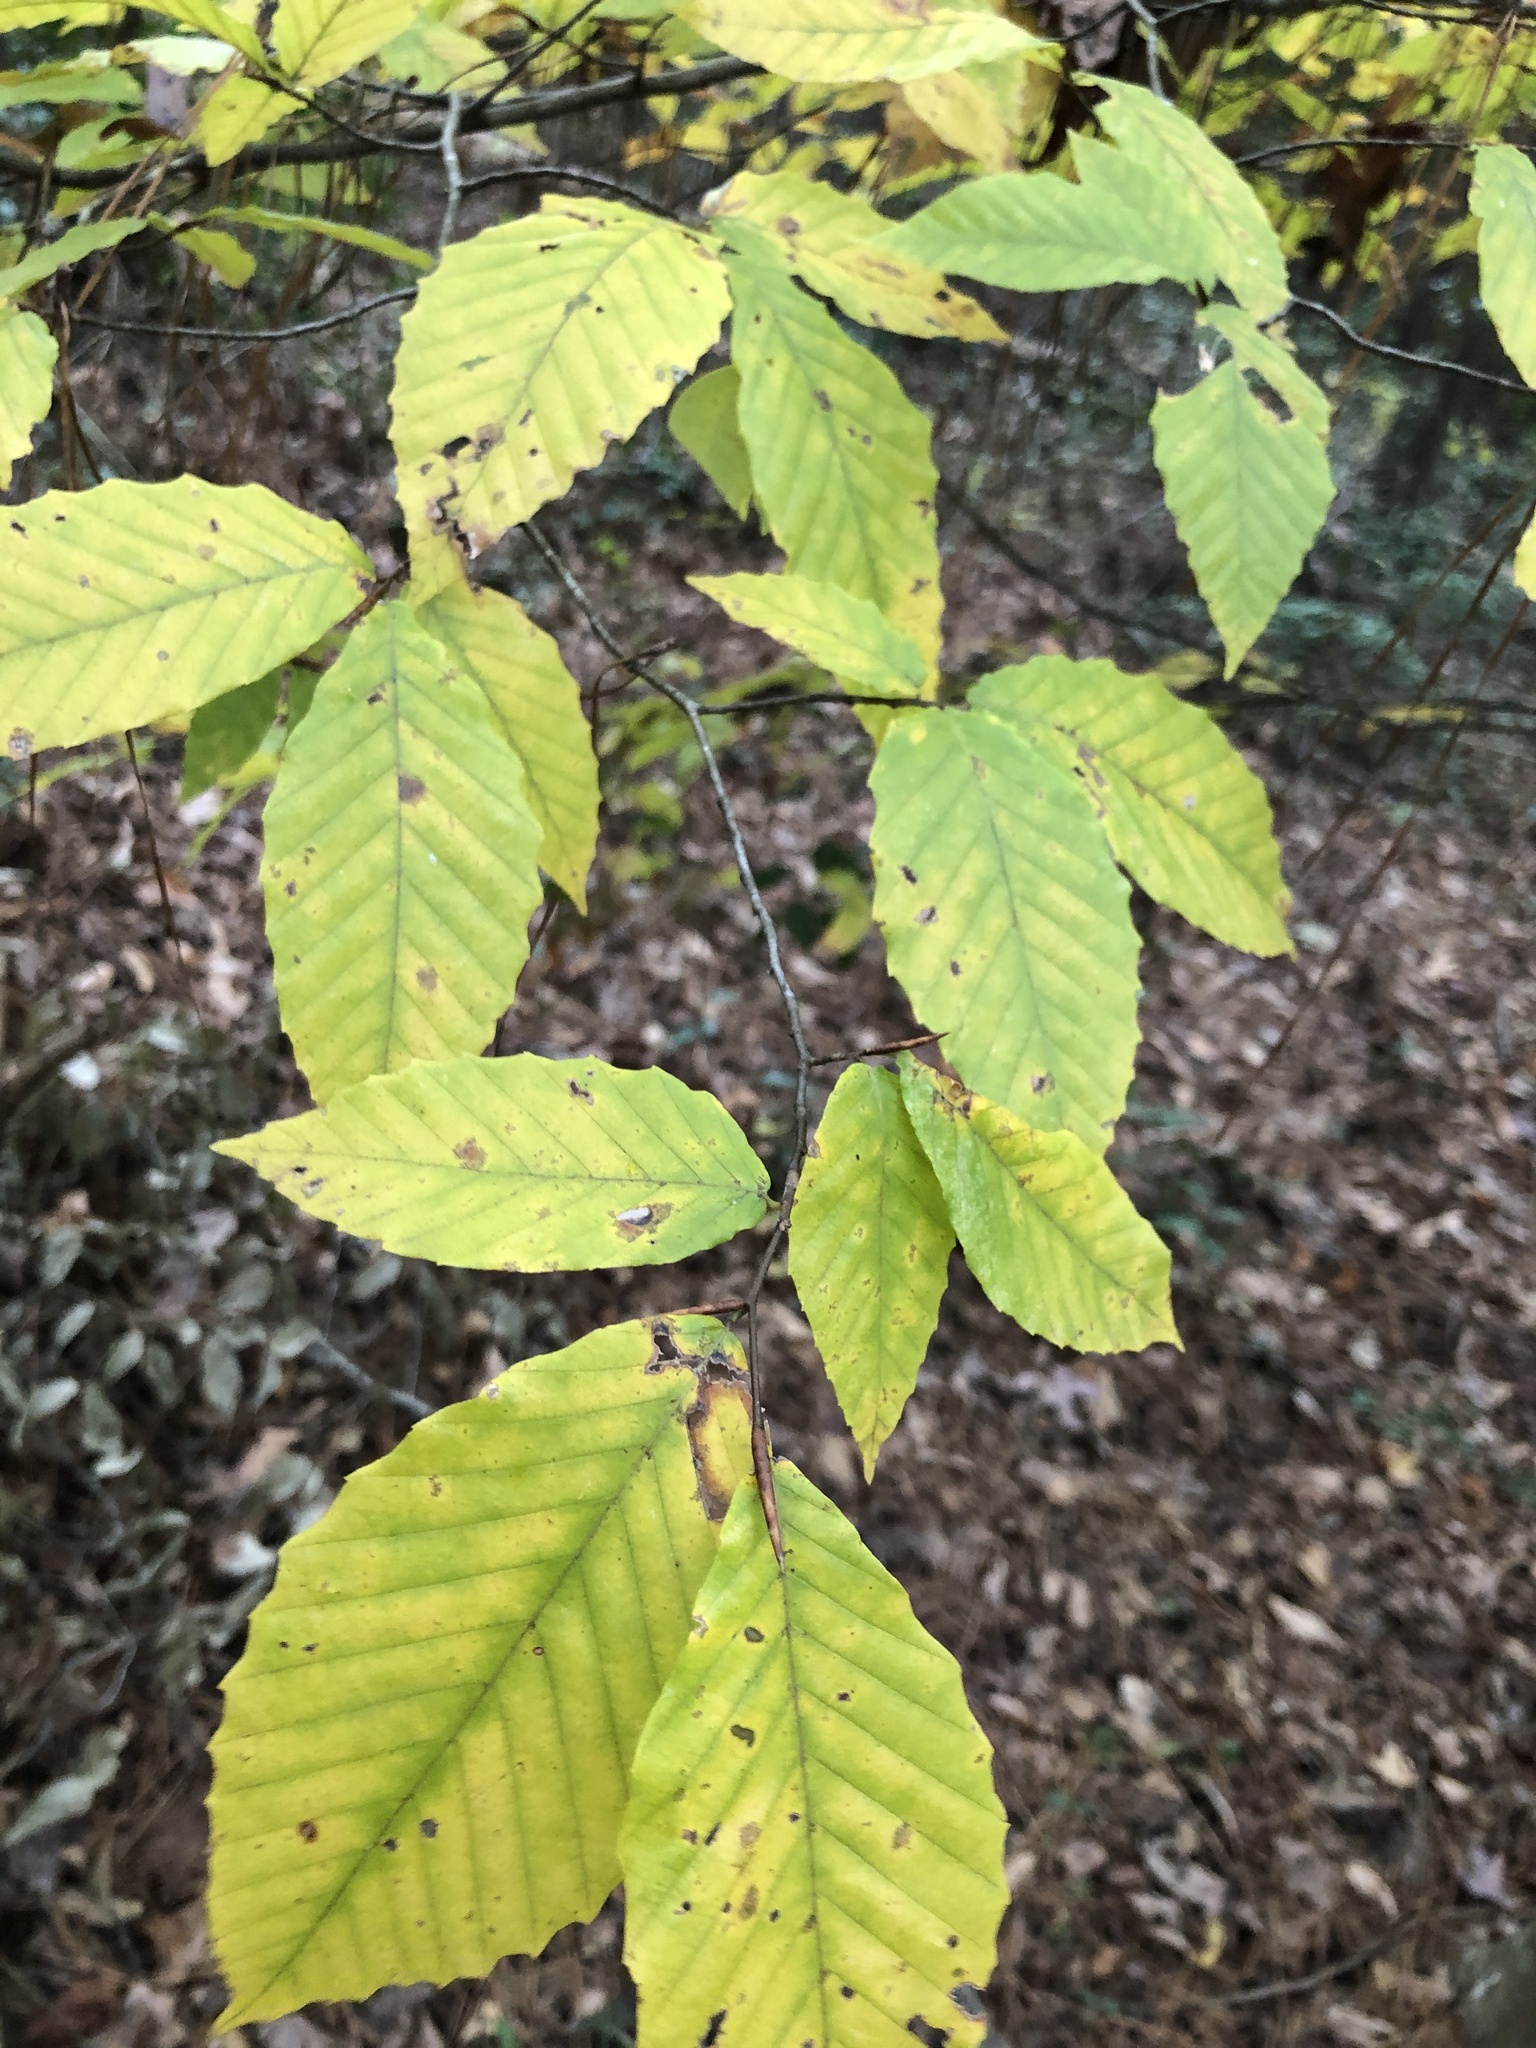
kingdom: Plantae
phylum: Tracheophyta
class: Magnoliopsida
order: Fagales
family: Fagaceae
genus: Fagus
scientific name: Fagus grandifolia
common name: American beech
